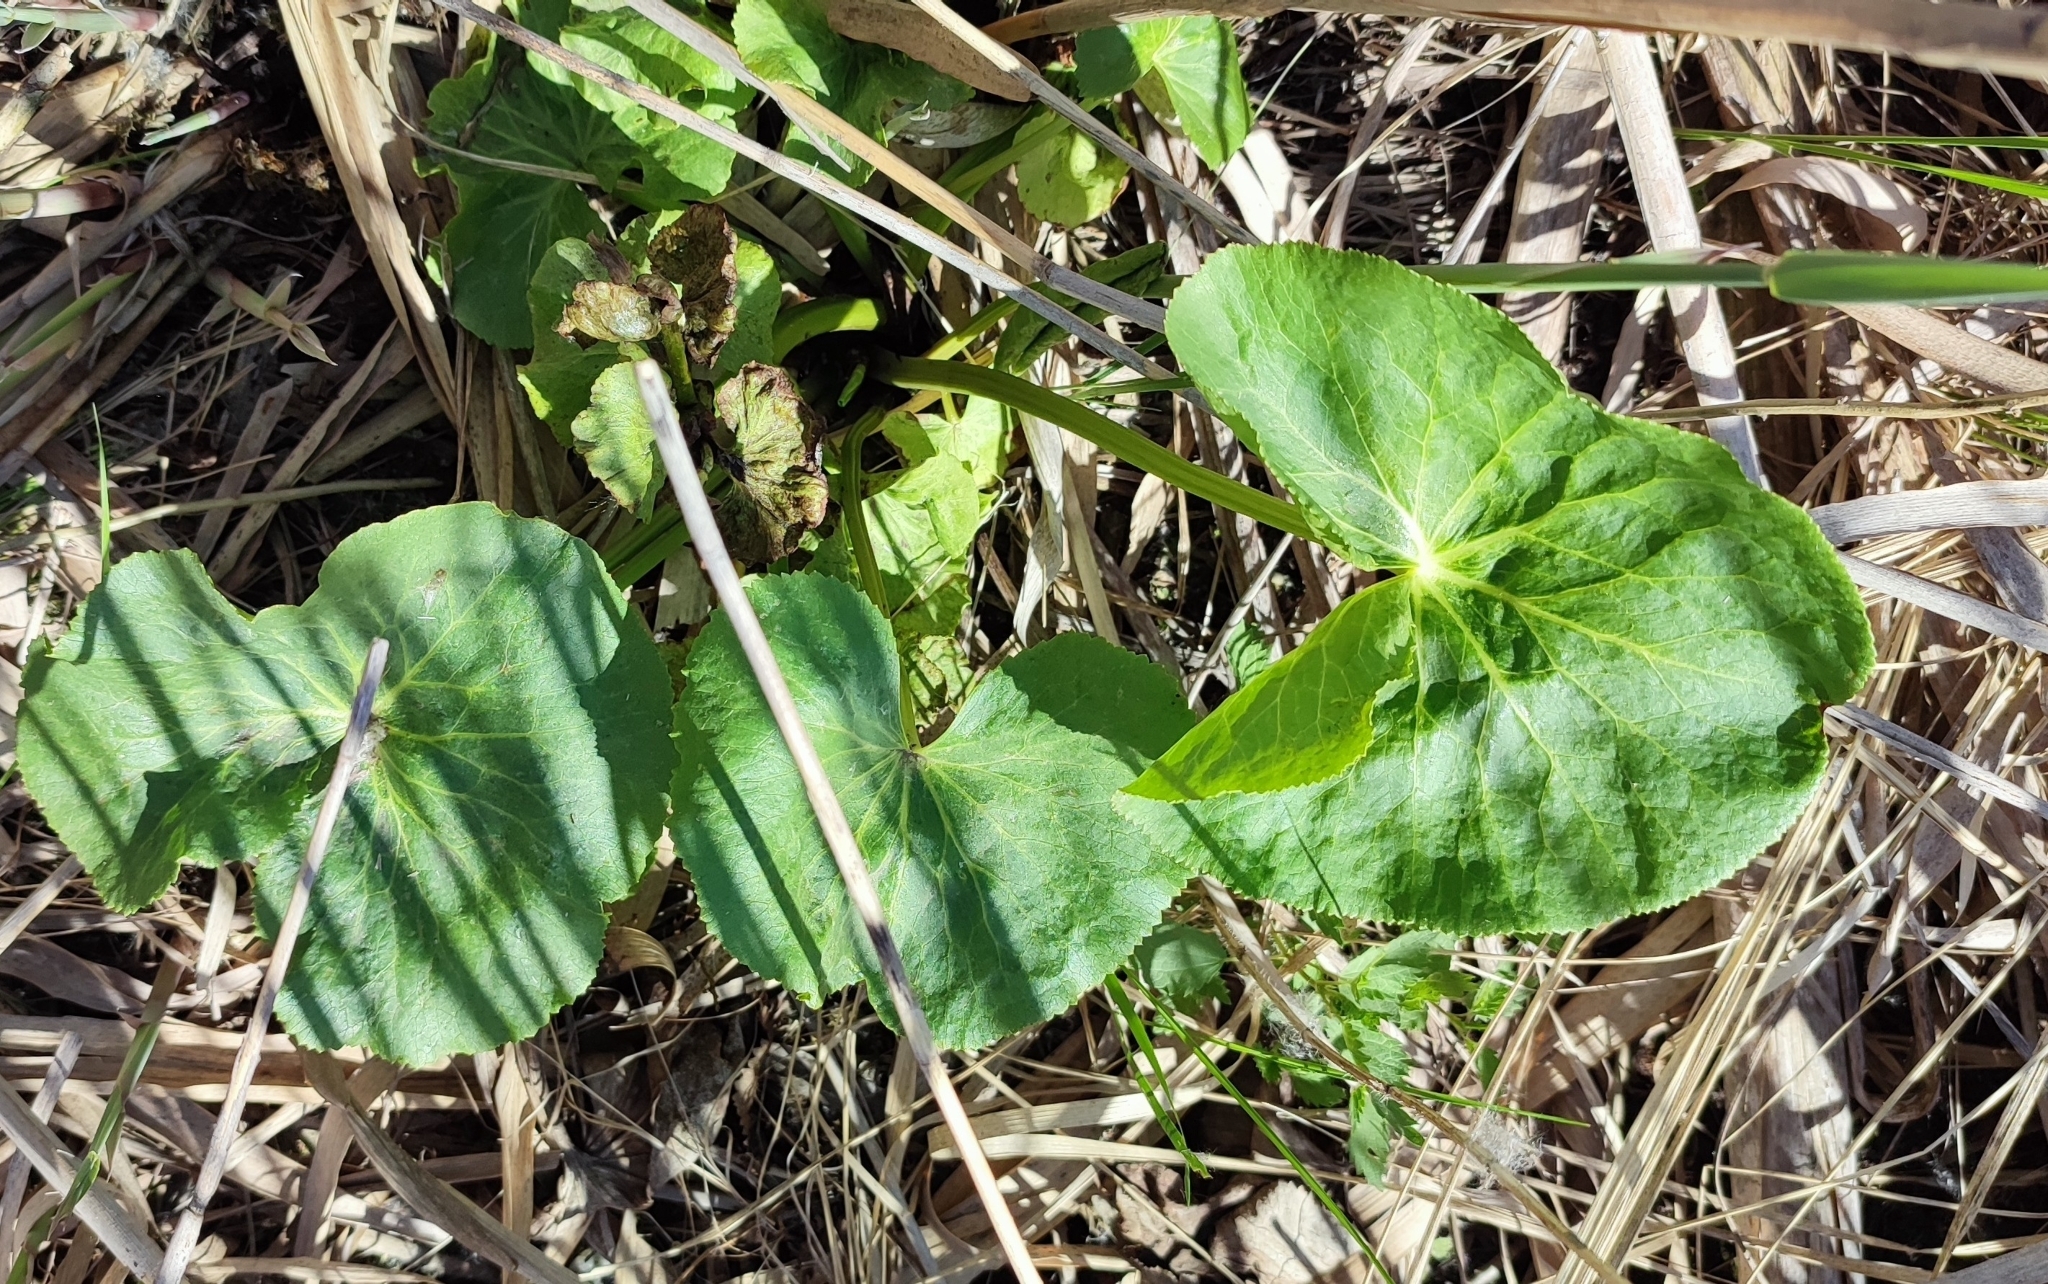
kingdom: Plantae
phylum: Tracheophyta
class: Magnoliopsida
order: Ranunculales
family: Ranunculaceae
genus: Caltha
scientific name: Caltha palustris
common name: Marsh marigold
